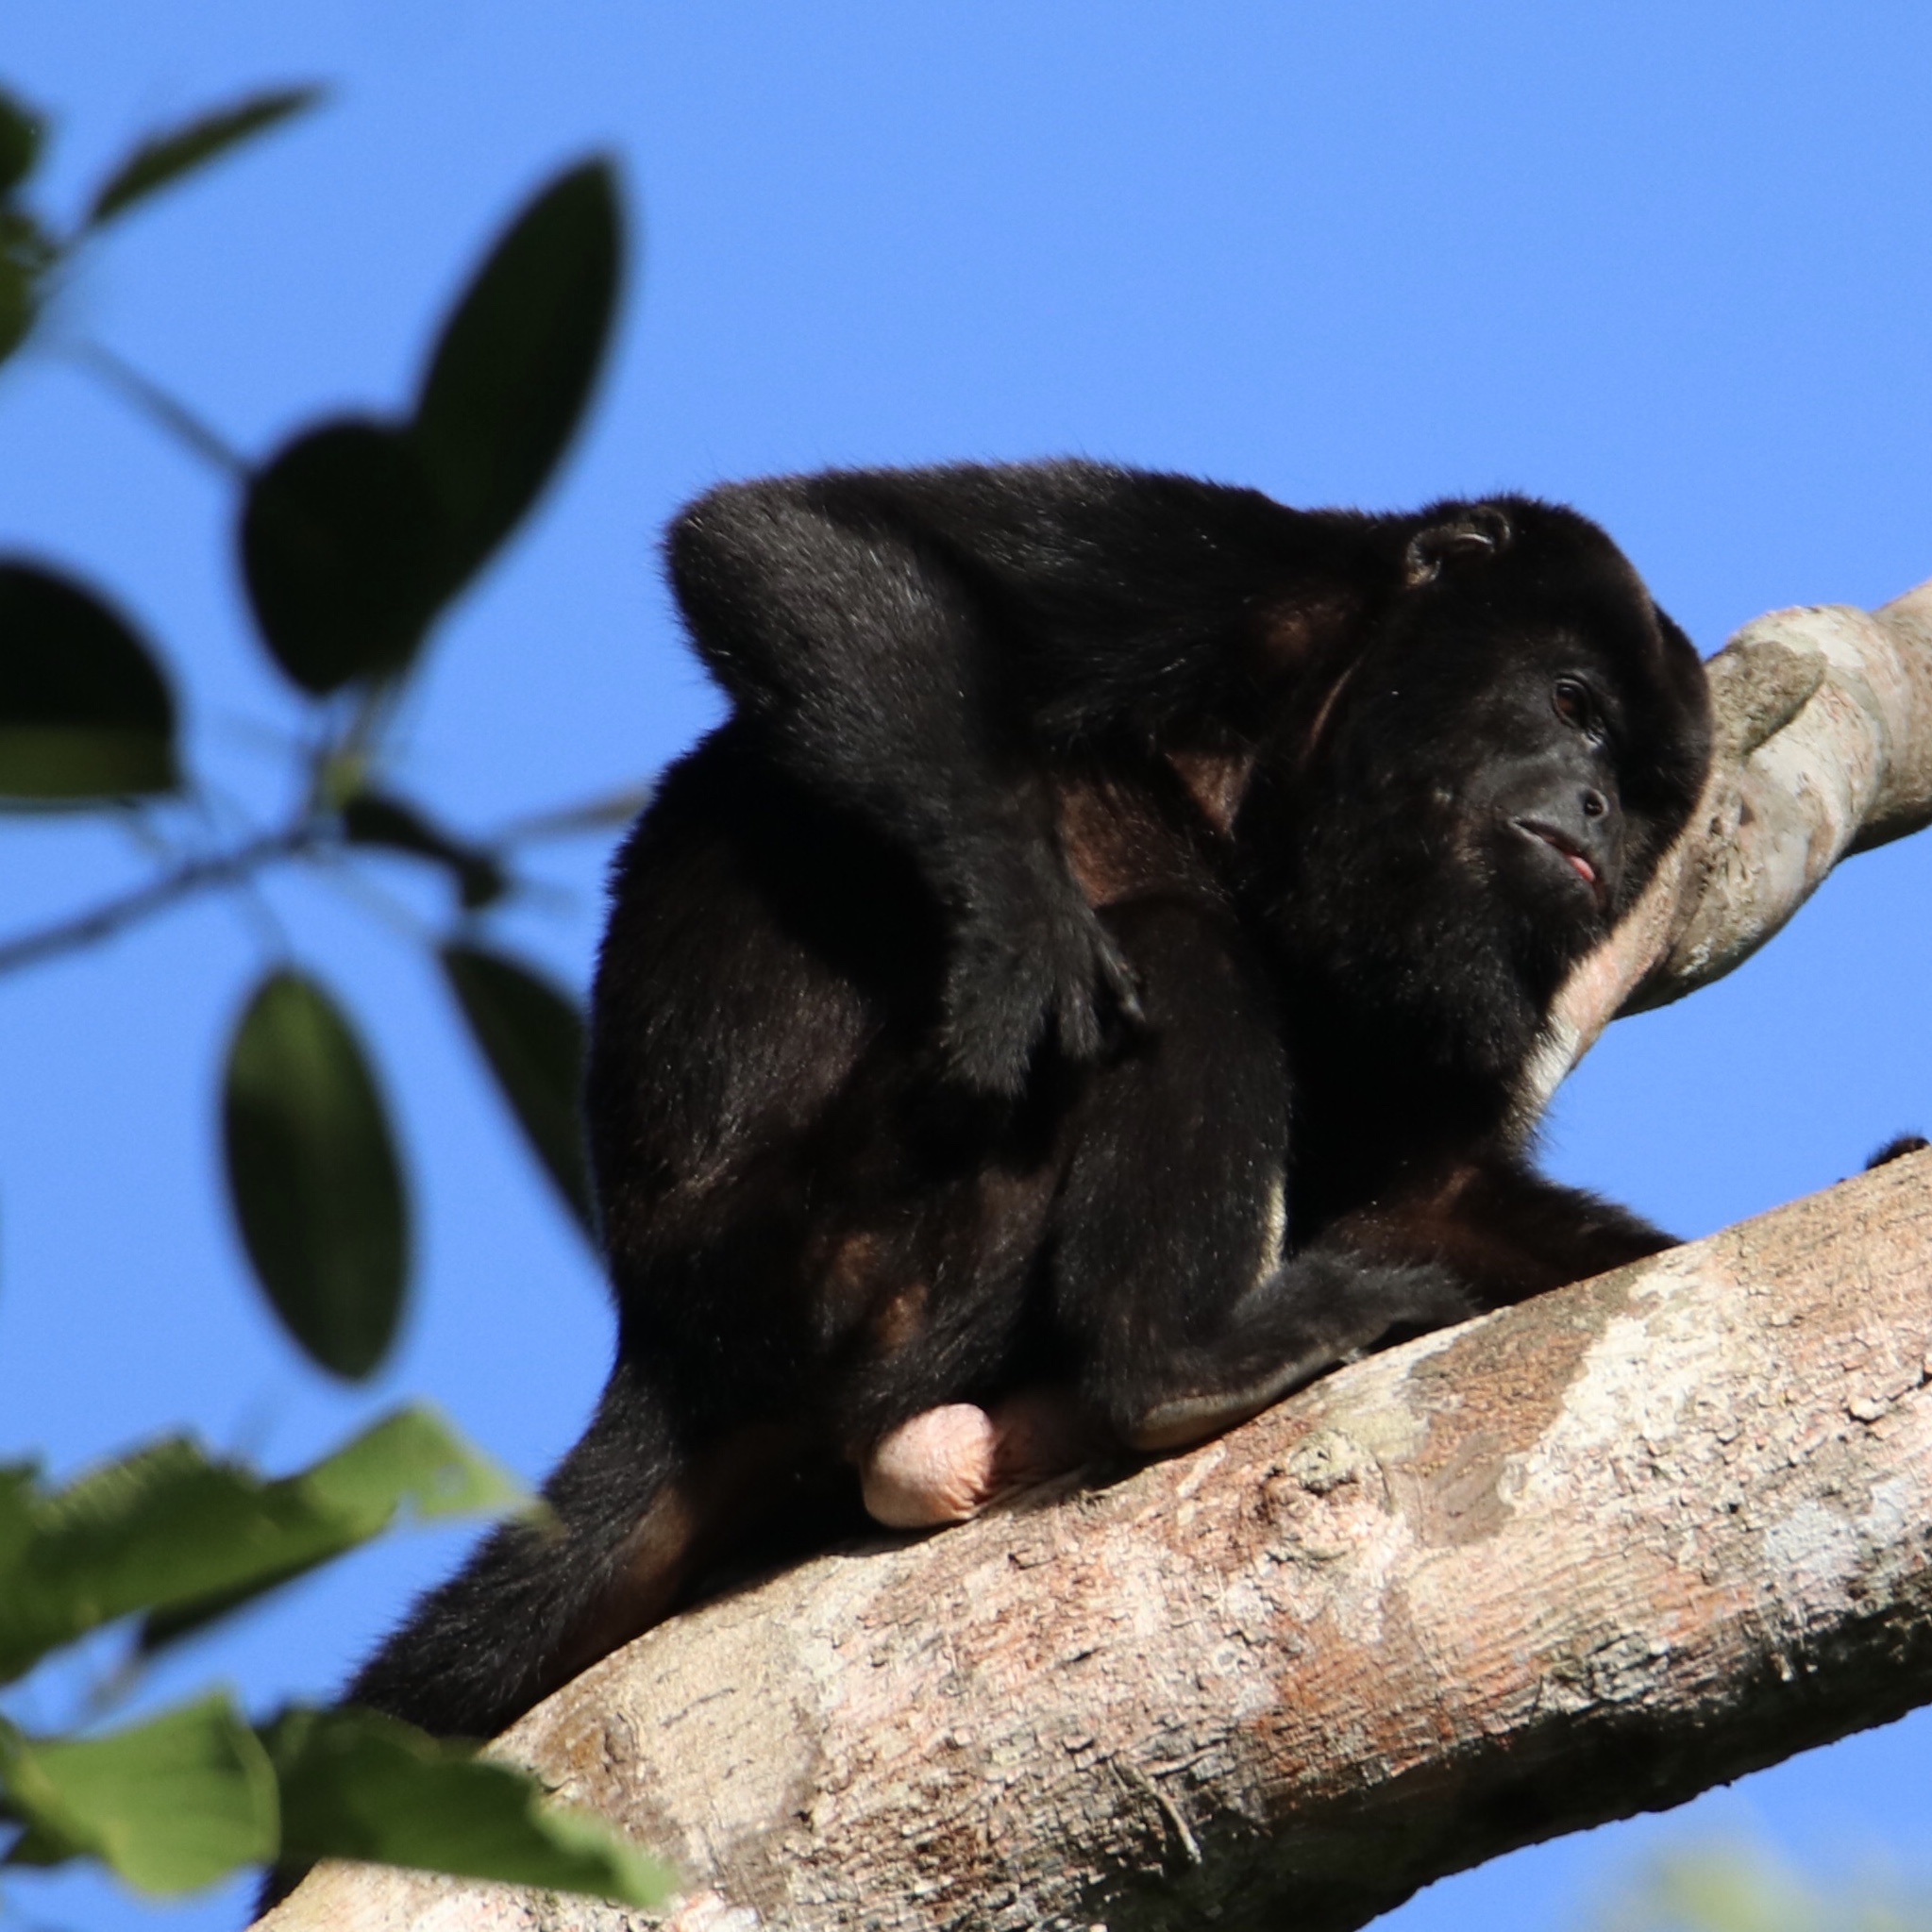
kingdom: Animalia
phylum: Chordata
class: Mammalia
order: Primates
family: Atelidae
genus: Alouatta
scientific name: Alouatta palliata
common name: Mantled howler
